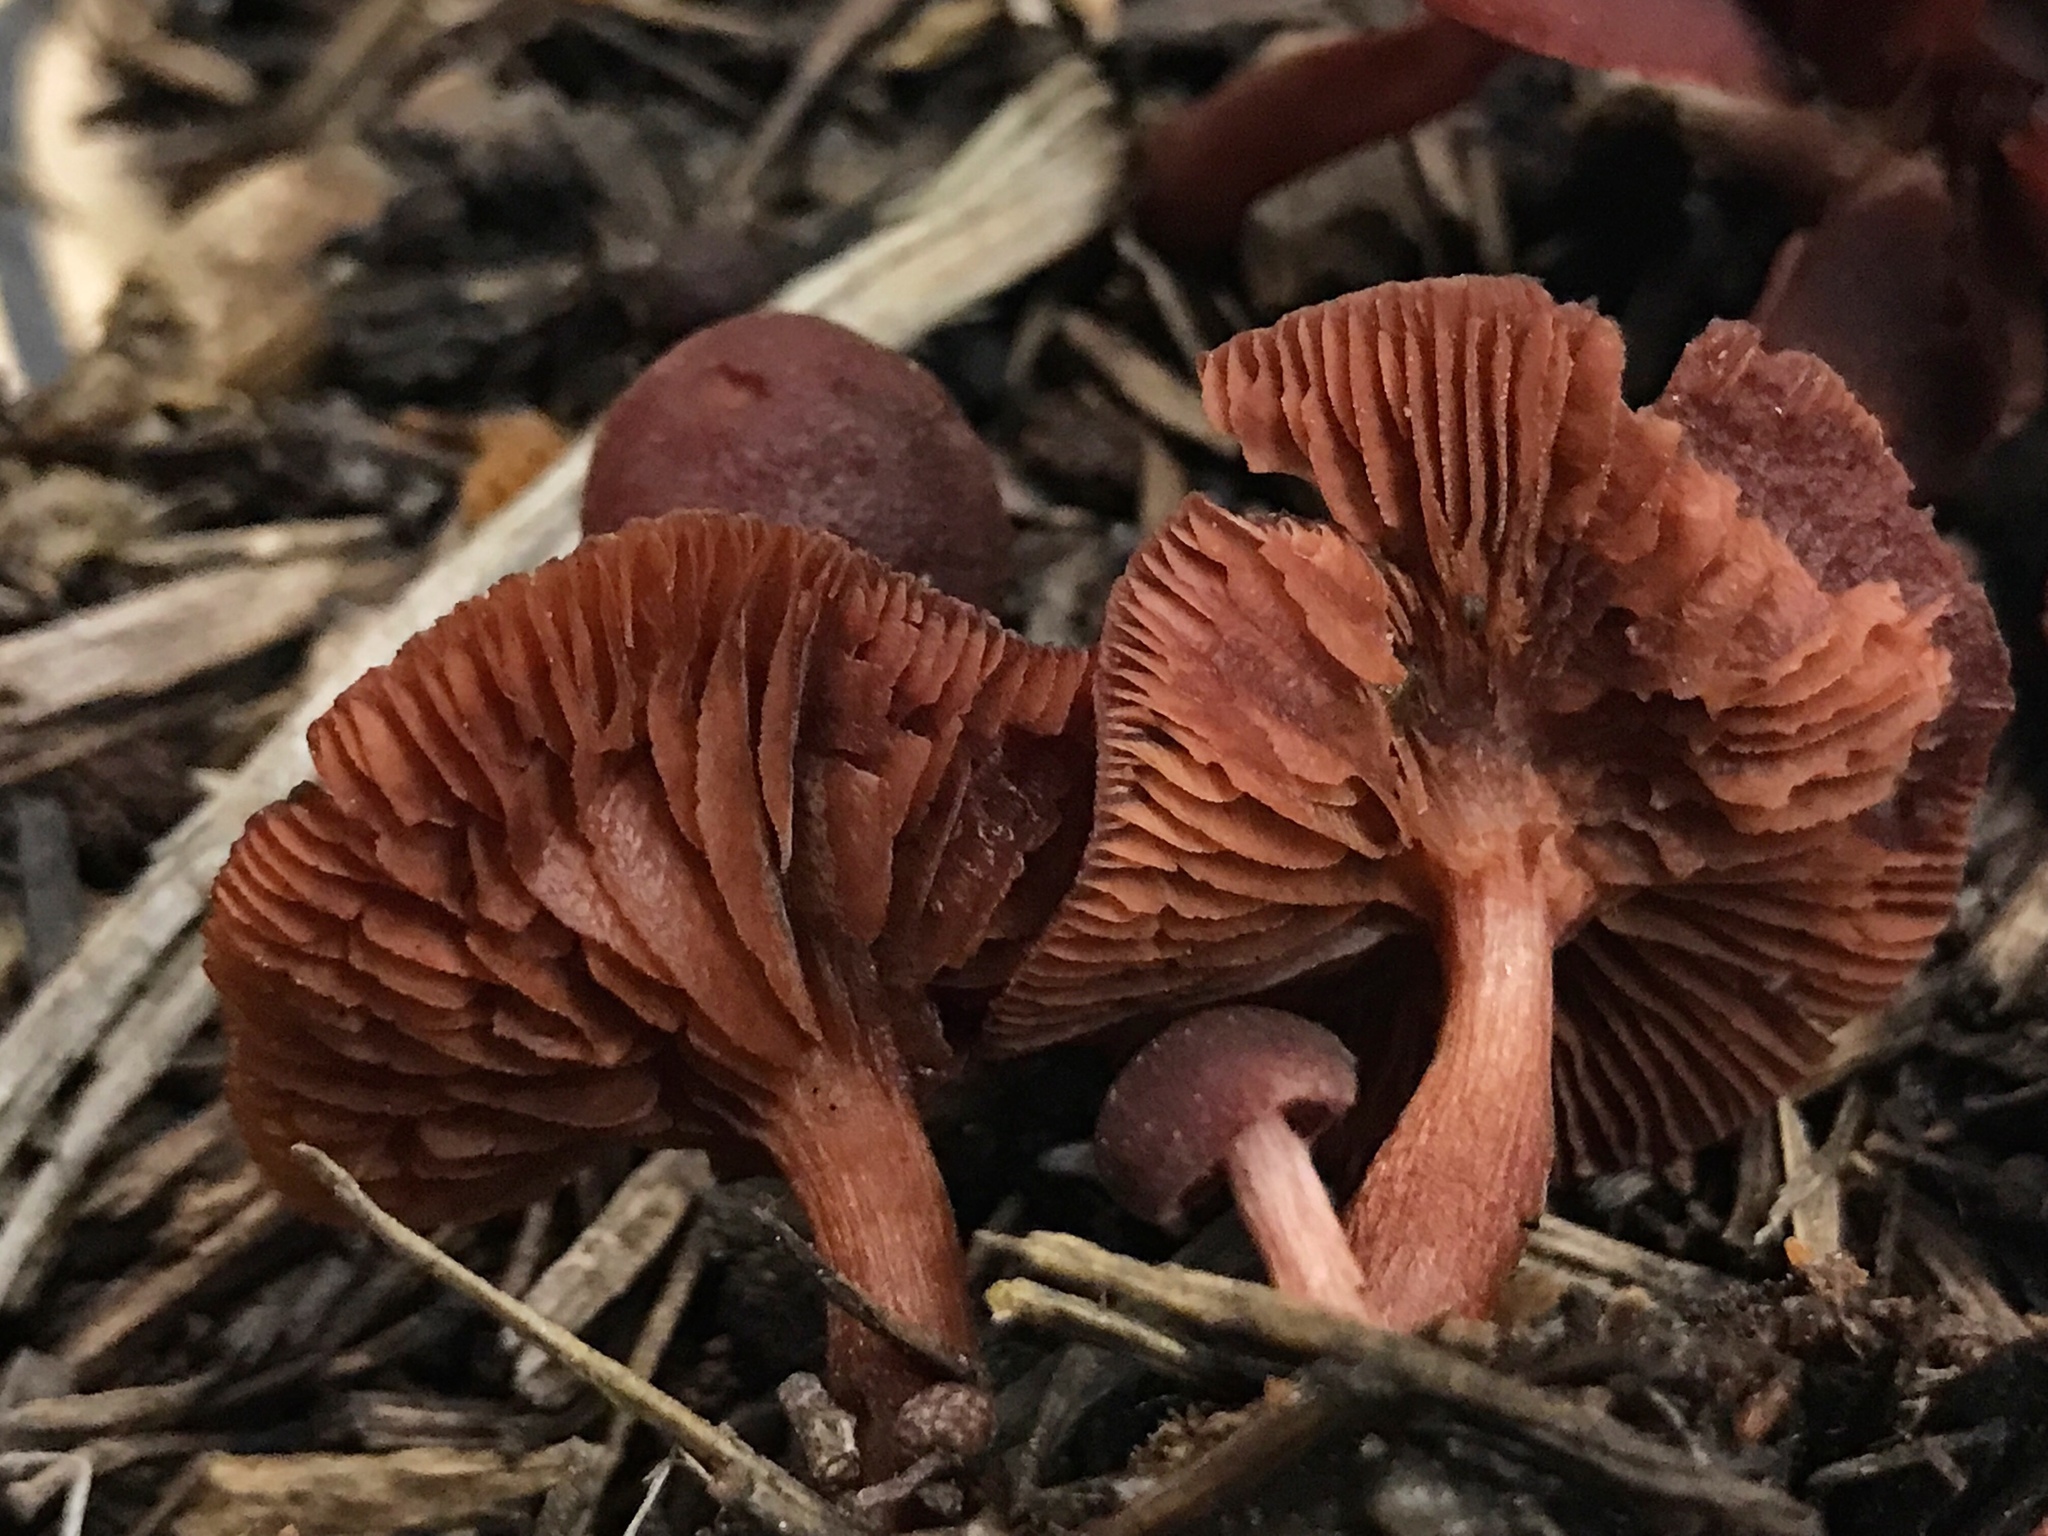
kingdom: Fungi
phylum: Basidiomycota
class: Agaricomycetes
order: Agaricales
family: Tubariaceae
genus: Tubaria
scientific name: Tubaria punicea
